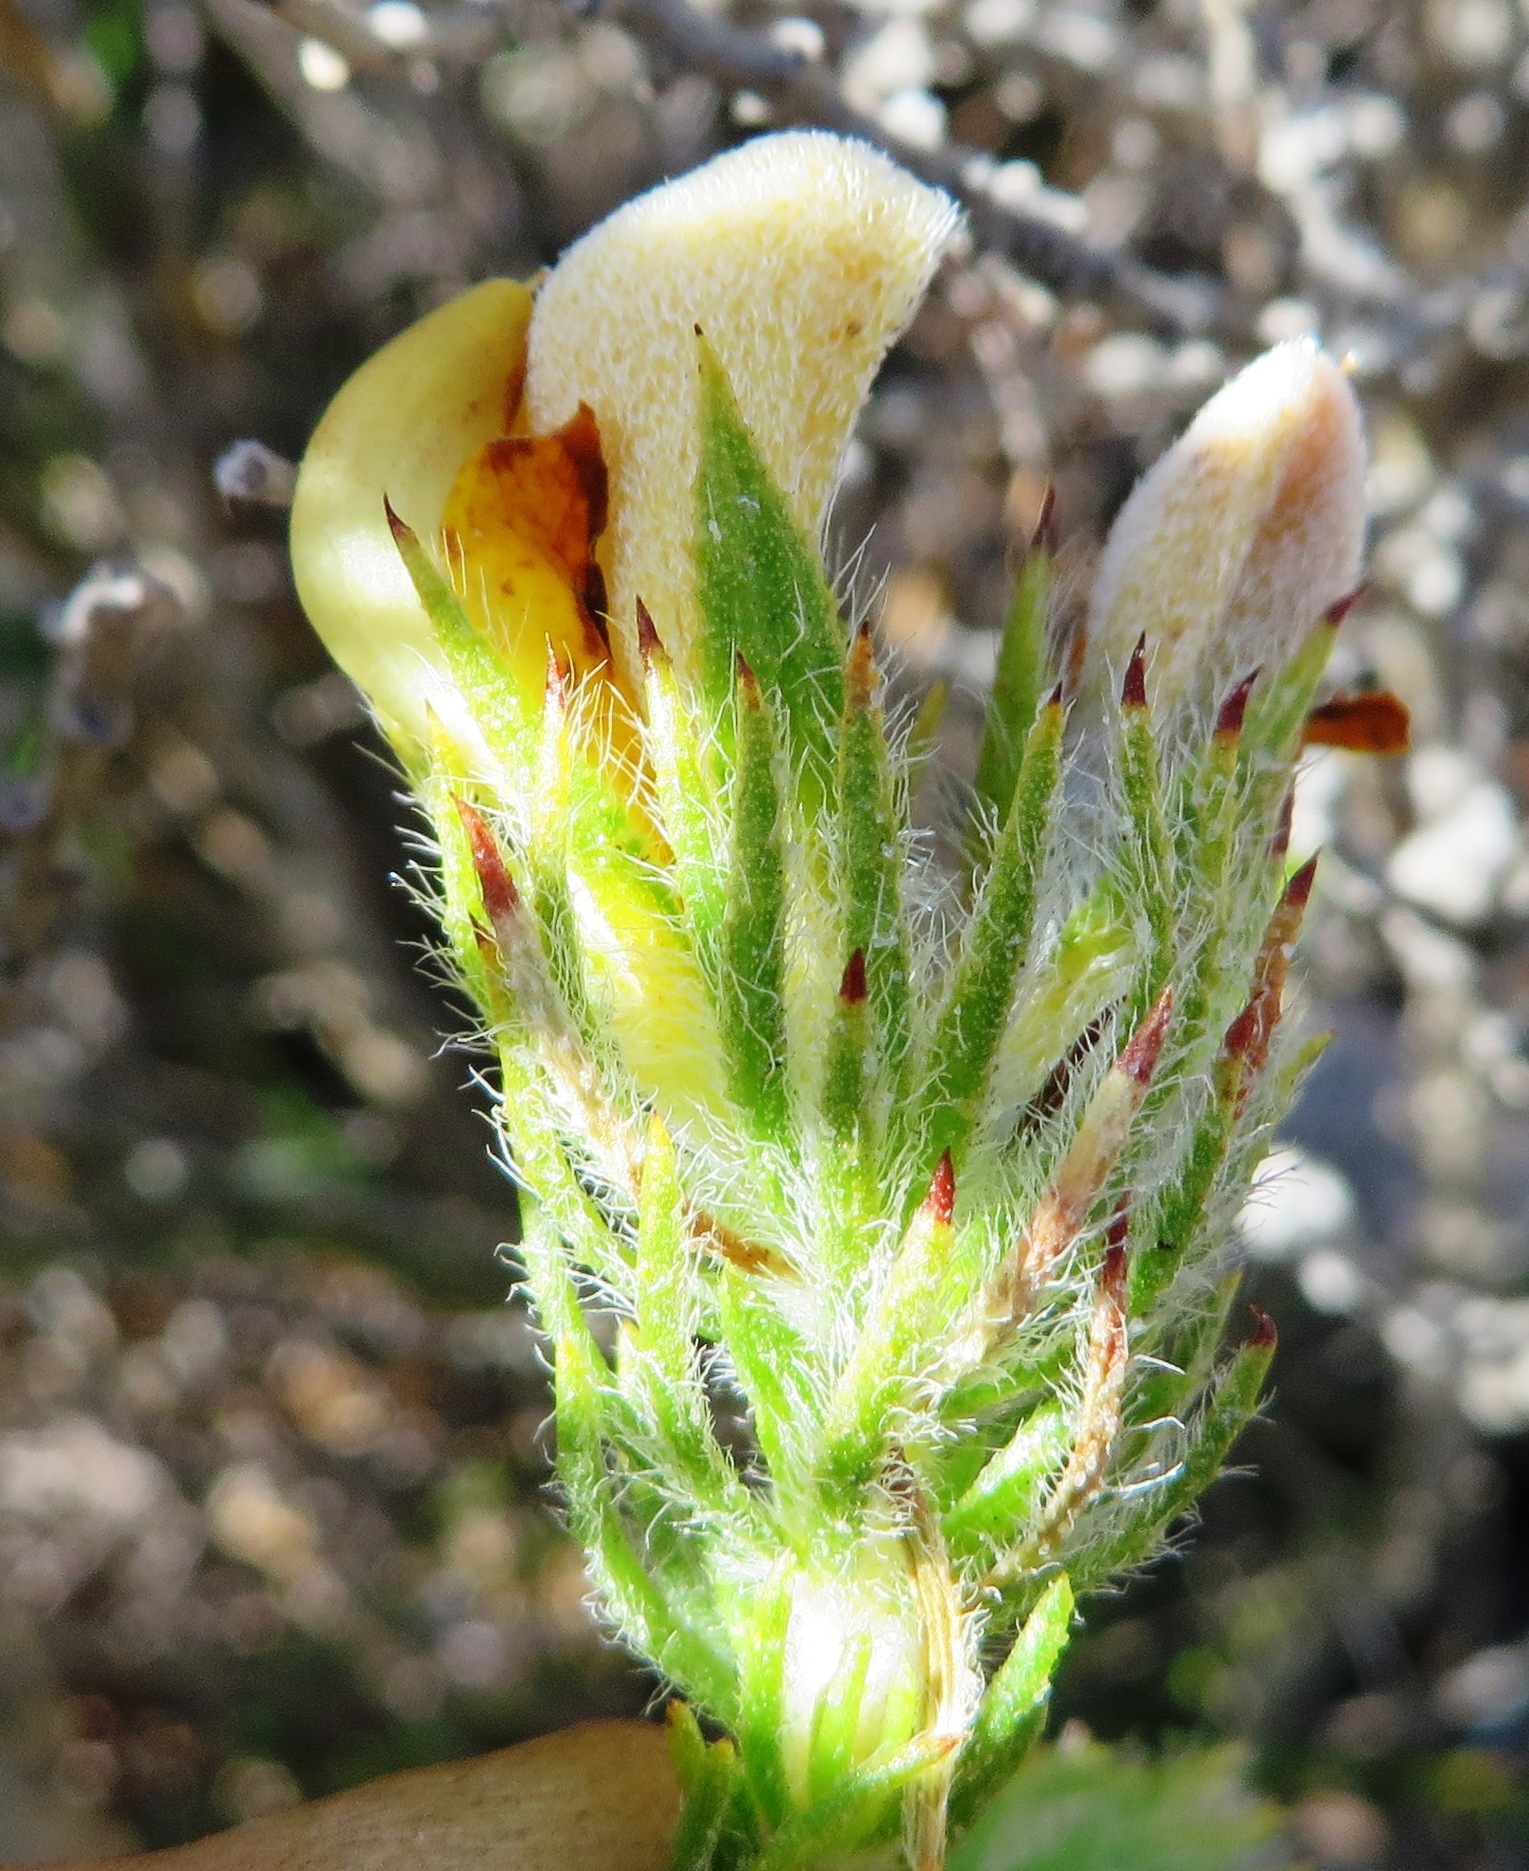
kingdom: Plantae
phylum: Tracheophyta
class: Magnoliopsida
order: Fabales
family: Fabaceae
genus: Aspalathus
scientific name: Aspalathus ciliaris
